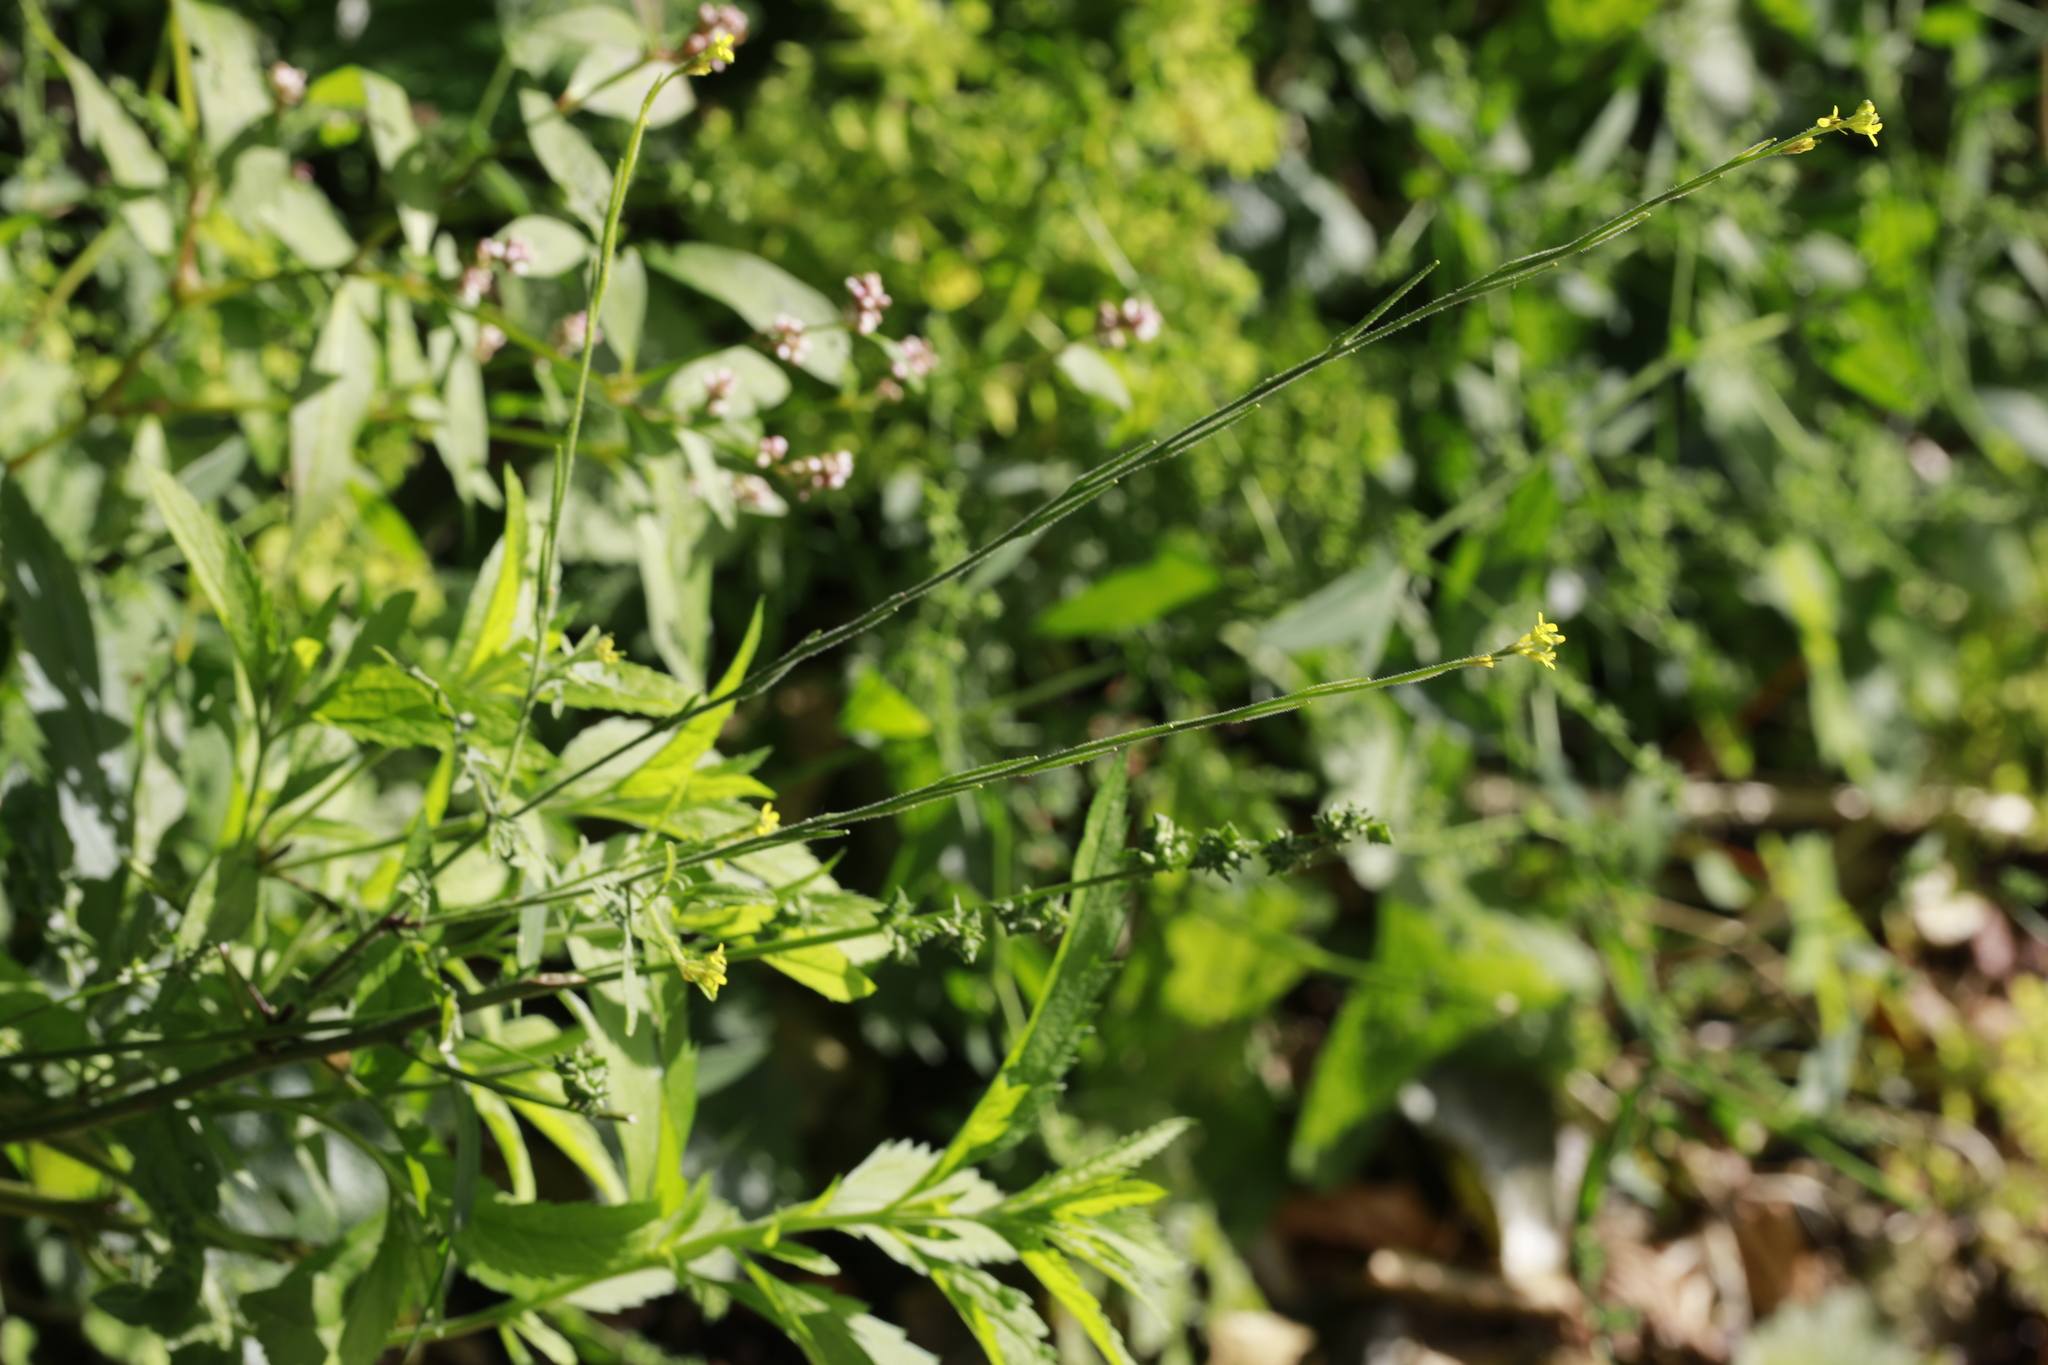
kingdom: Plantae
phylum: Tracheophyta
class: Magnoliopsida
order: Brassicales
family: Brassicaceae
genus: Sisymbrium
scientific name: Sisymbrium officinale
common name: Hedge mustard
